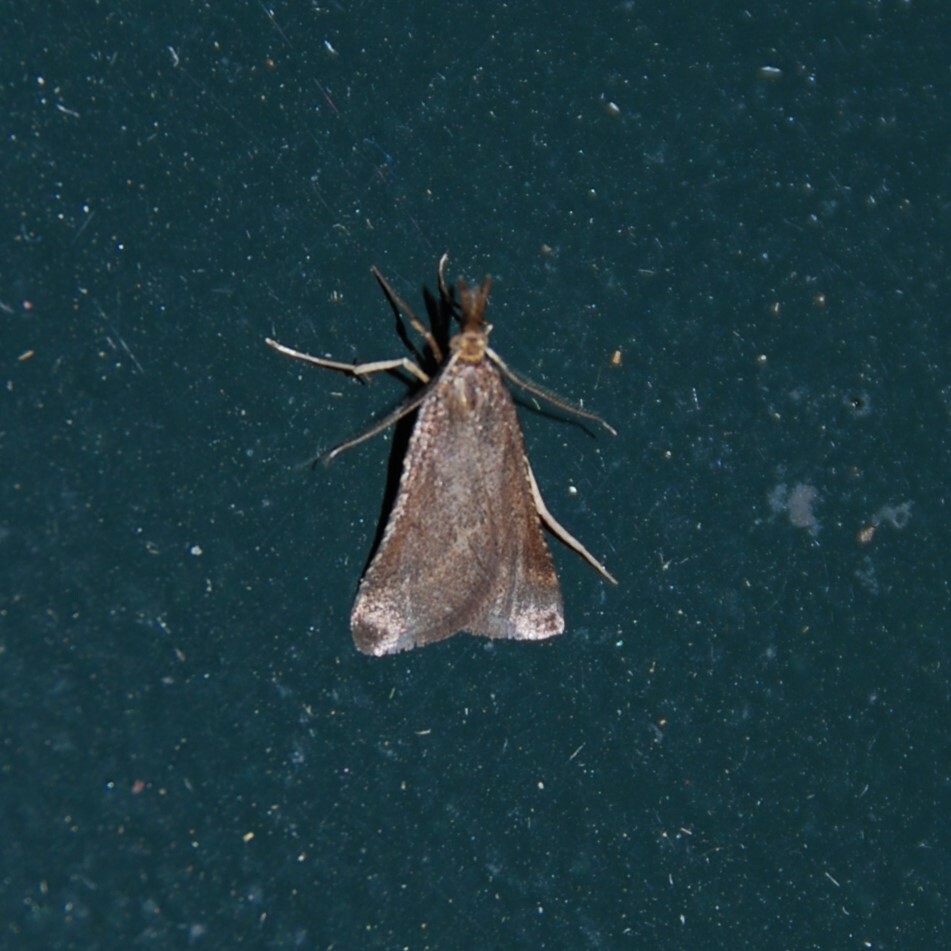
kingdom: Animalia
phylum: Arthropoda
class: Insecta
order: Lepidoptera
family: Pyralidae
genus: Synaphe
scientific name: Synaphe punctalis
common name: Long-legged tabby
